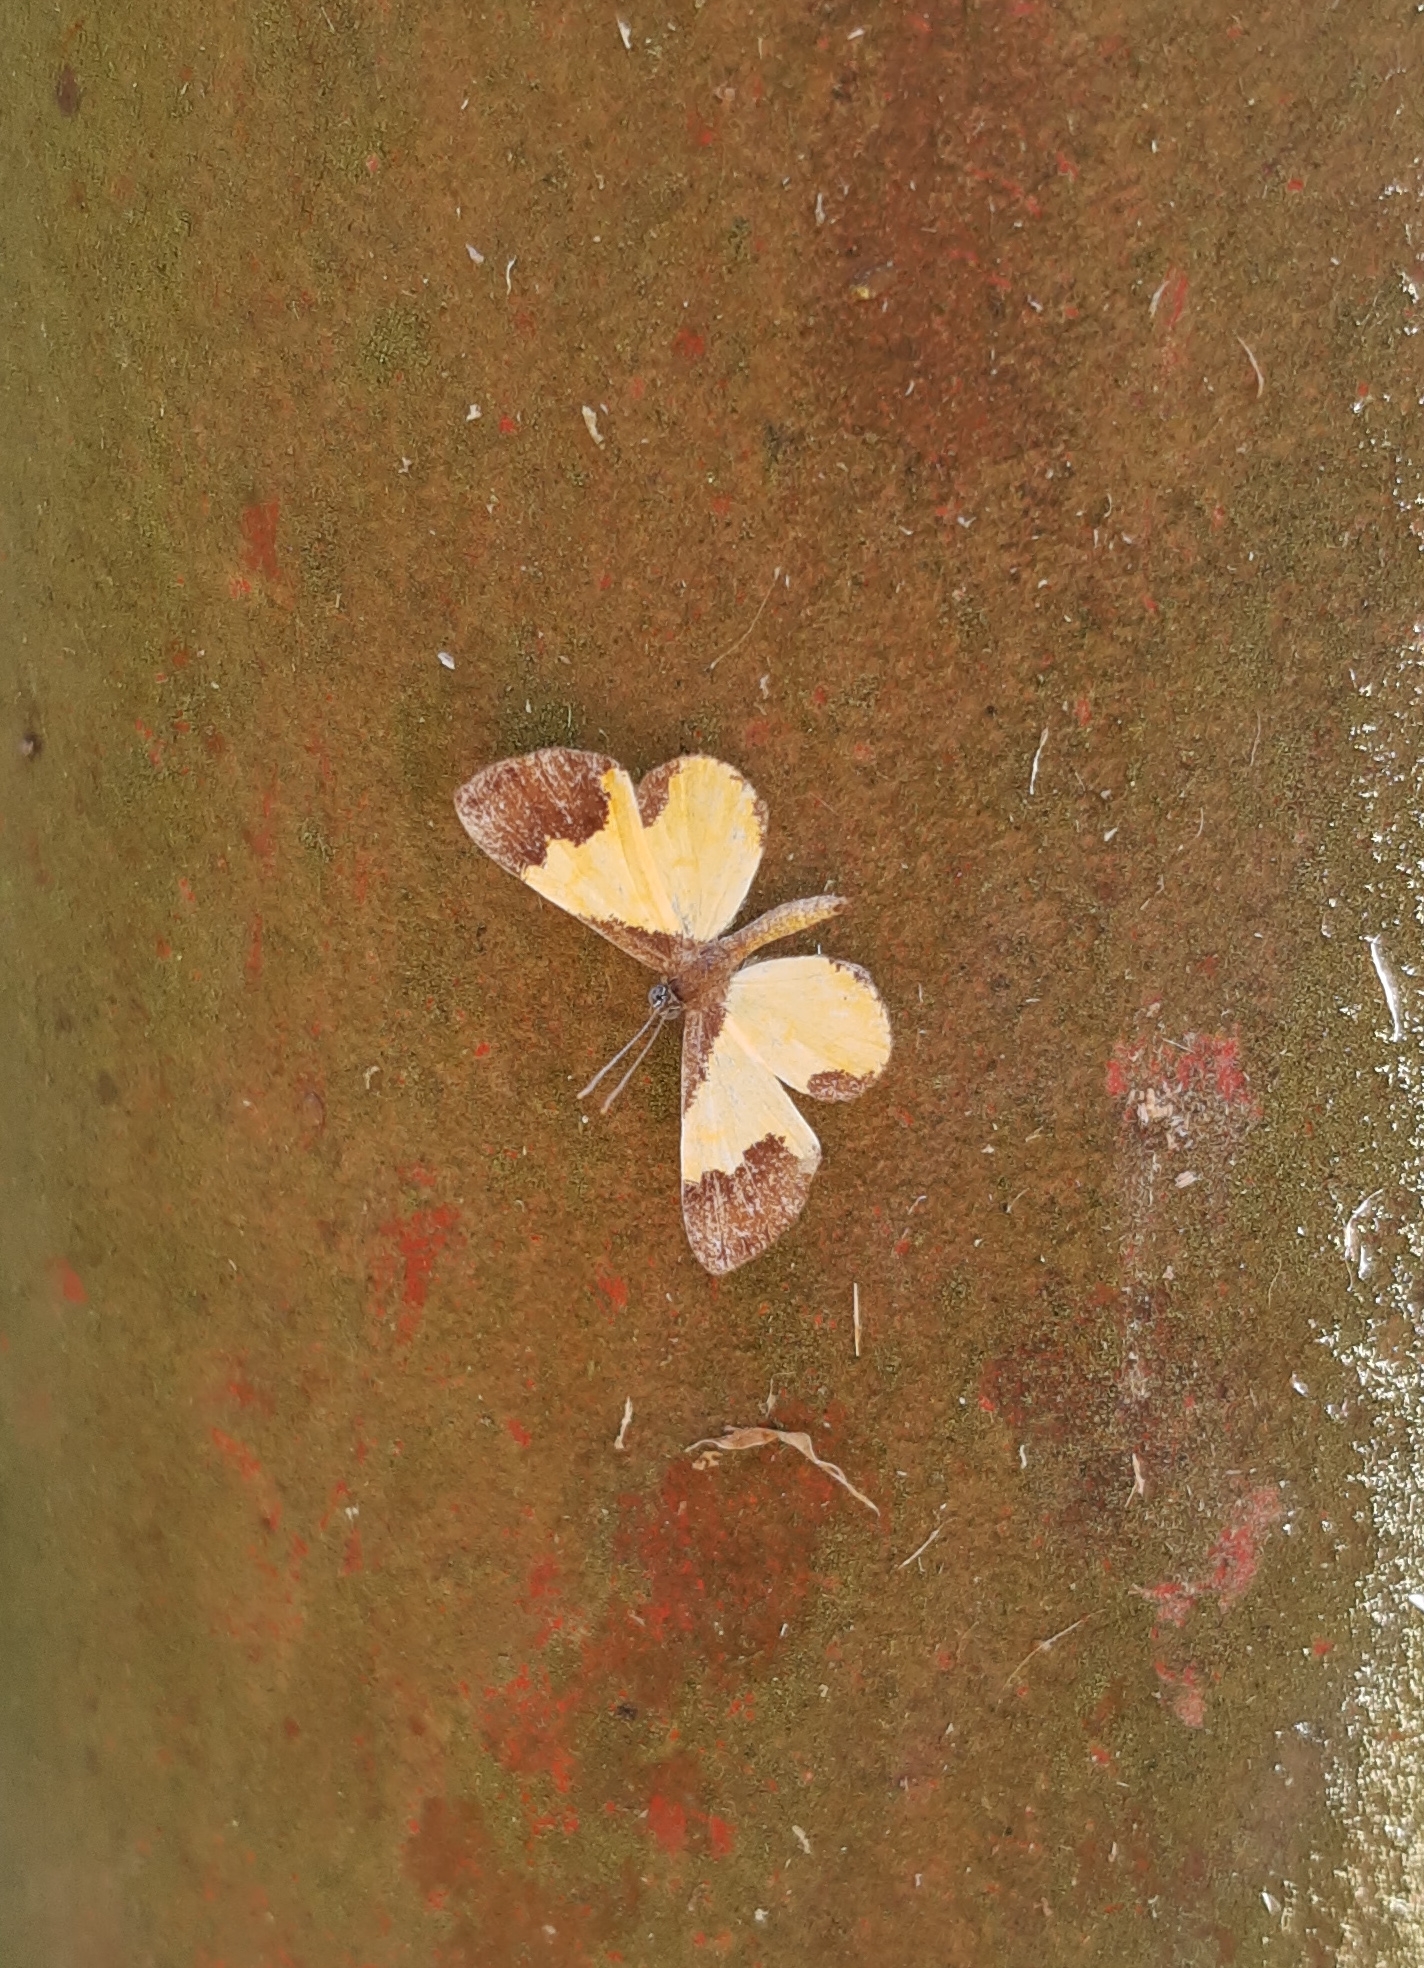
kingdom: Animalia
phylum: Arthropoda
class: Insecta
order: Lepidoptera
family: Riodinidae
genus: Echenais
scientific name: Echenais Adelotypa bolena
